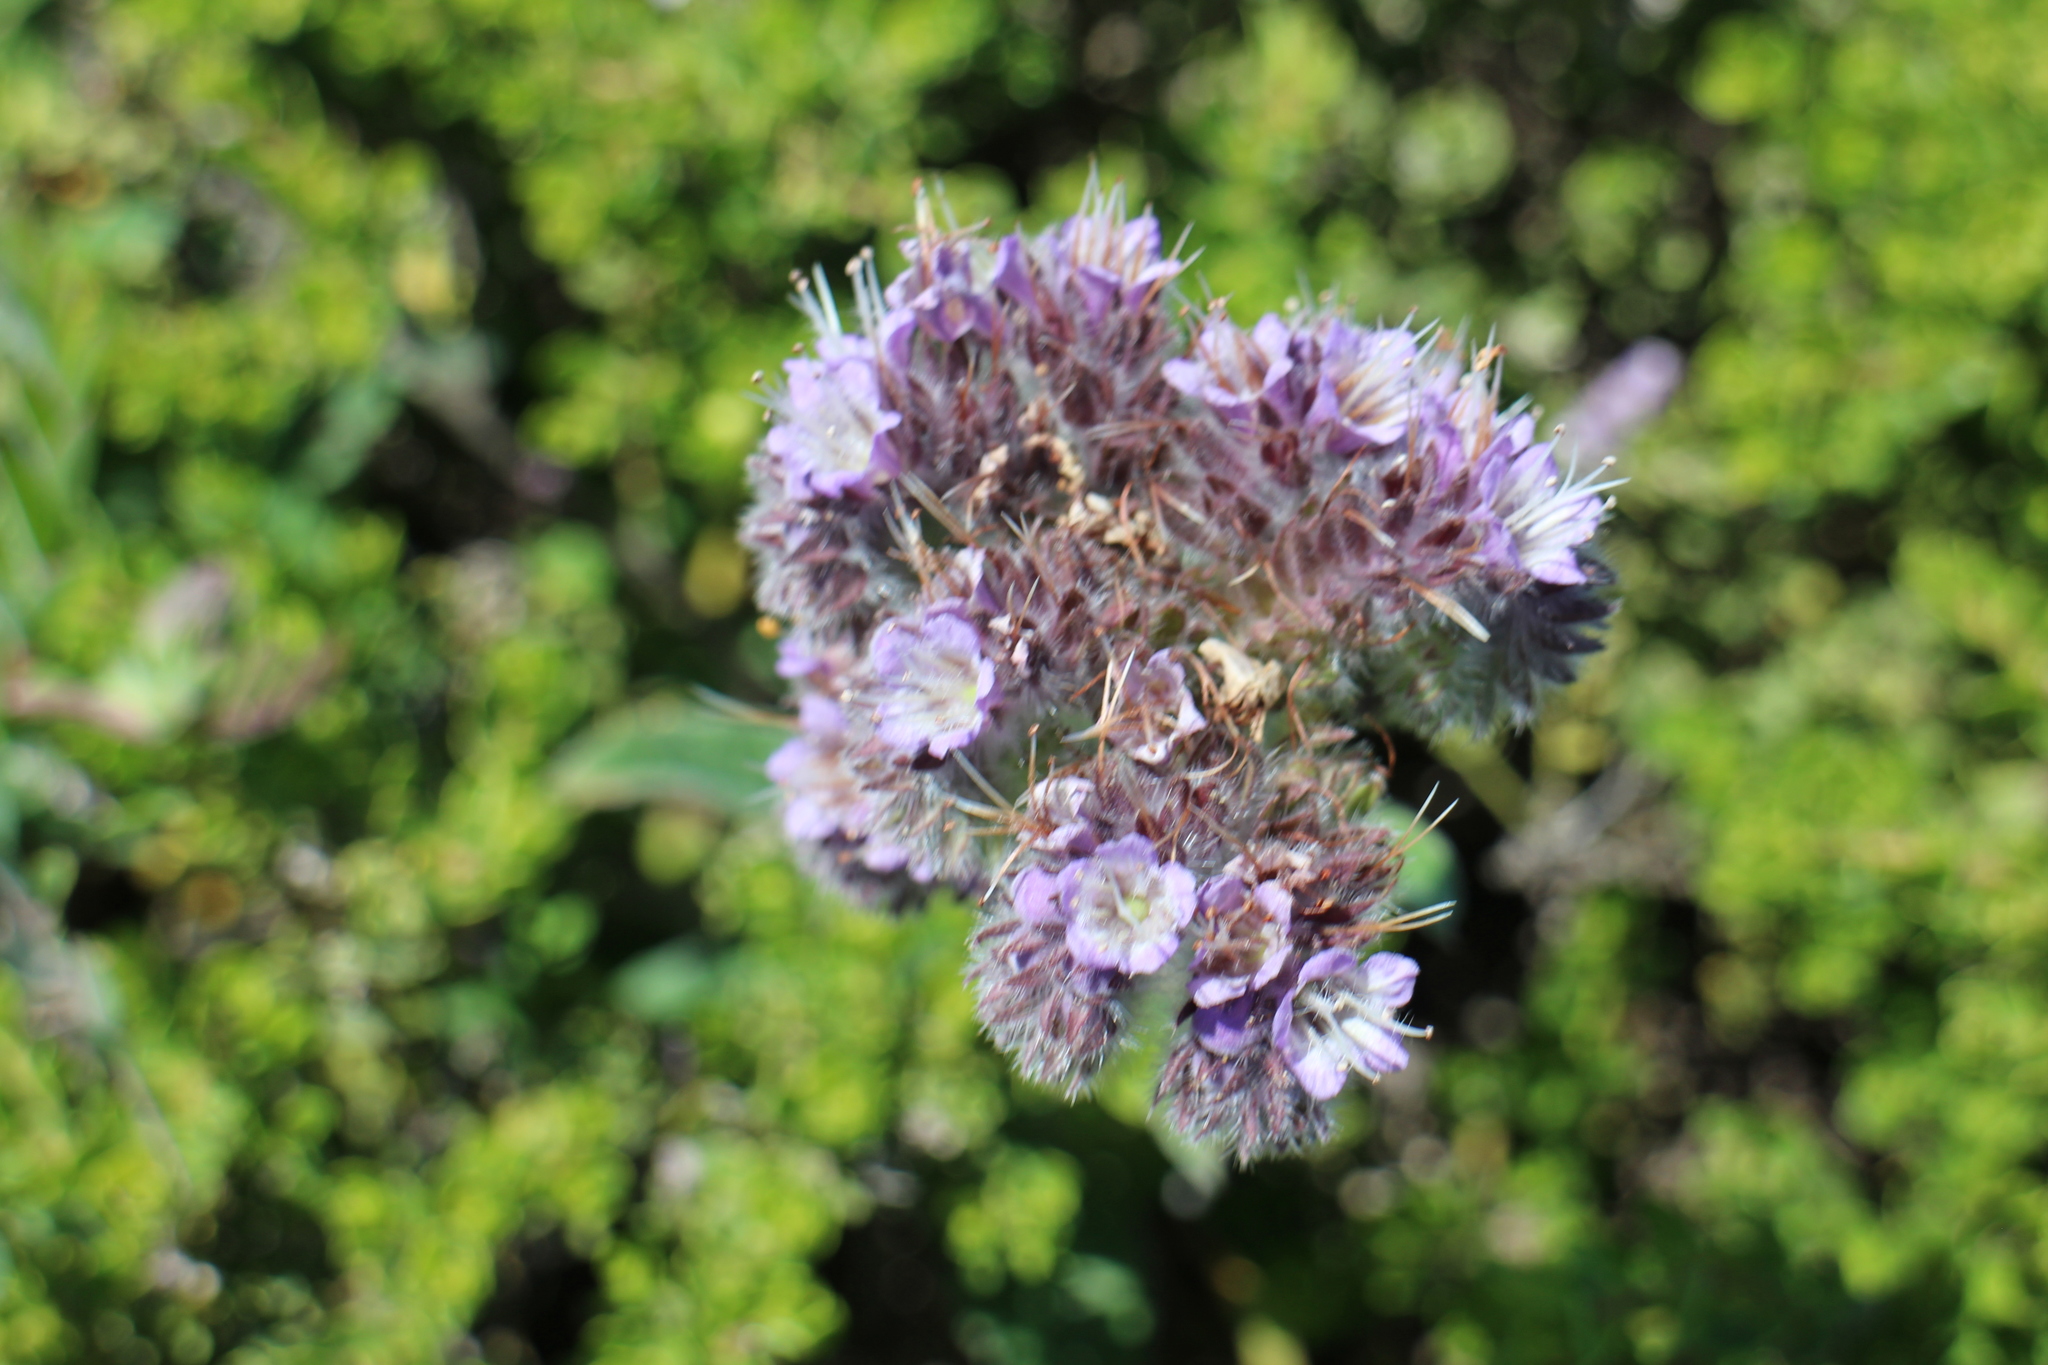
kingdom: Plantae
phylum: Tracheophyta
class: Magnoliopsida
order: Boraginales
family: Hydrophyllaceae
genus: Phacelia
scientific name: Phacelia californica
